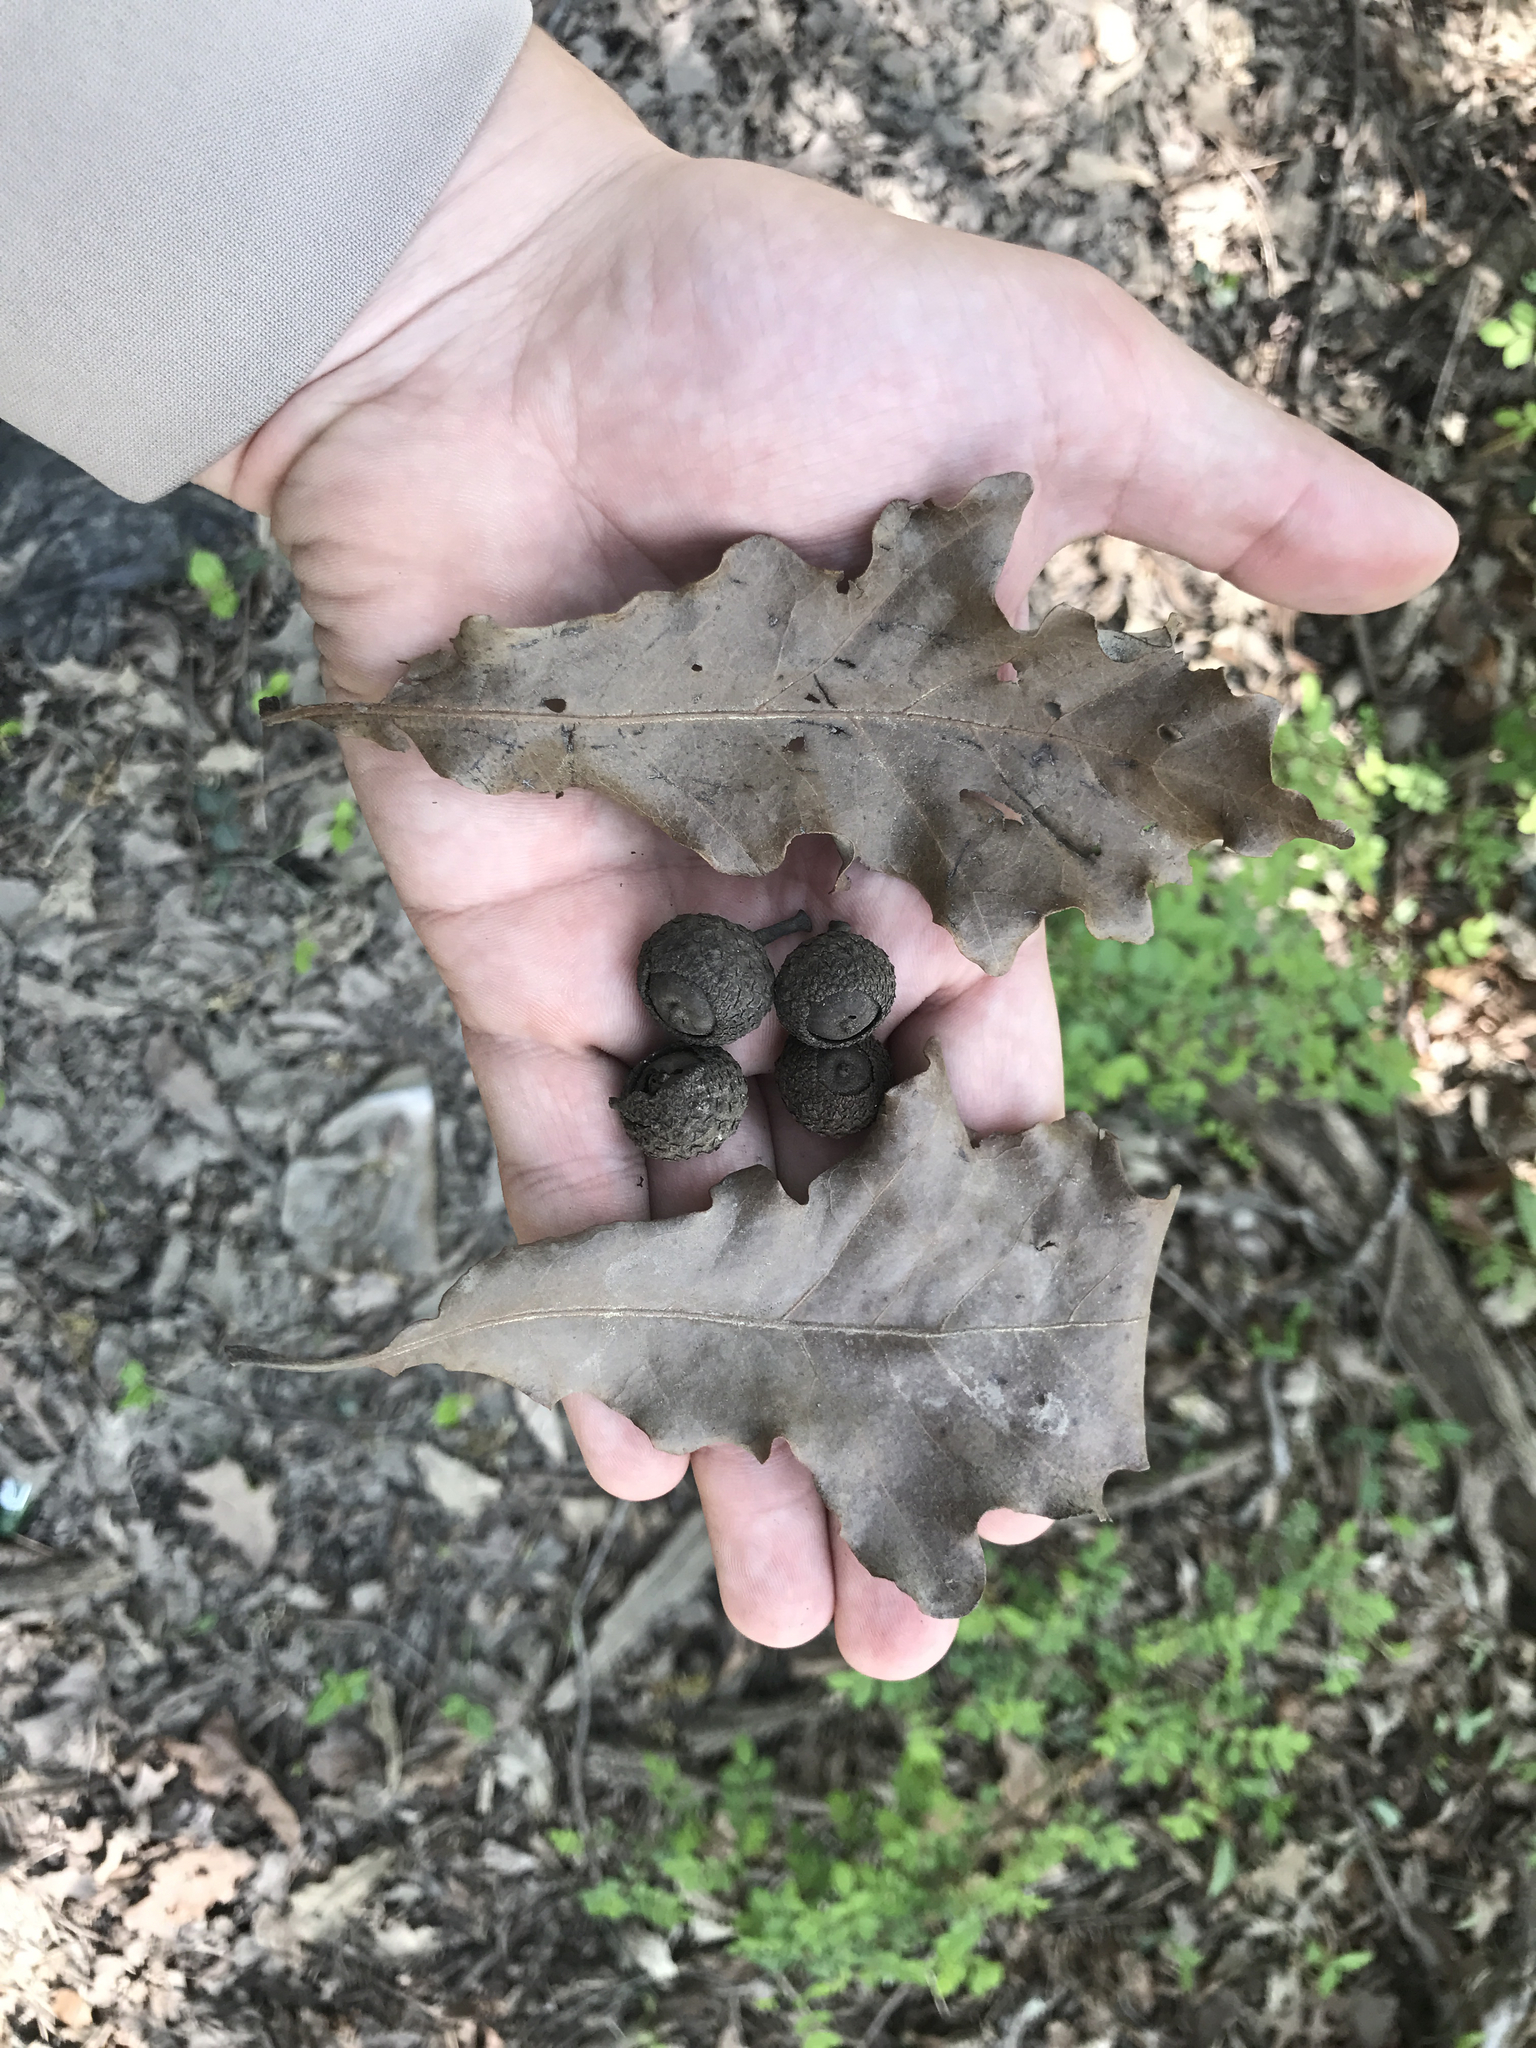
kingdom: Plantae
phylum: Tracheophyta
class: Magnoliopsida
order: Fagales
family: Fagaceae
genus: Quercus
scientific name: Quercus lyrata
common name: Overcup oak
